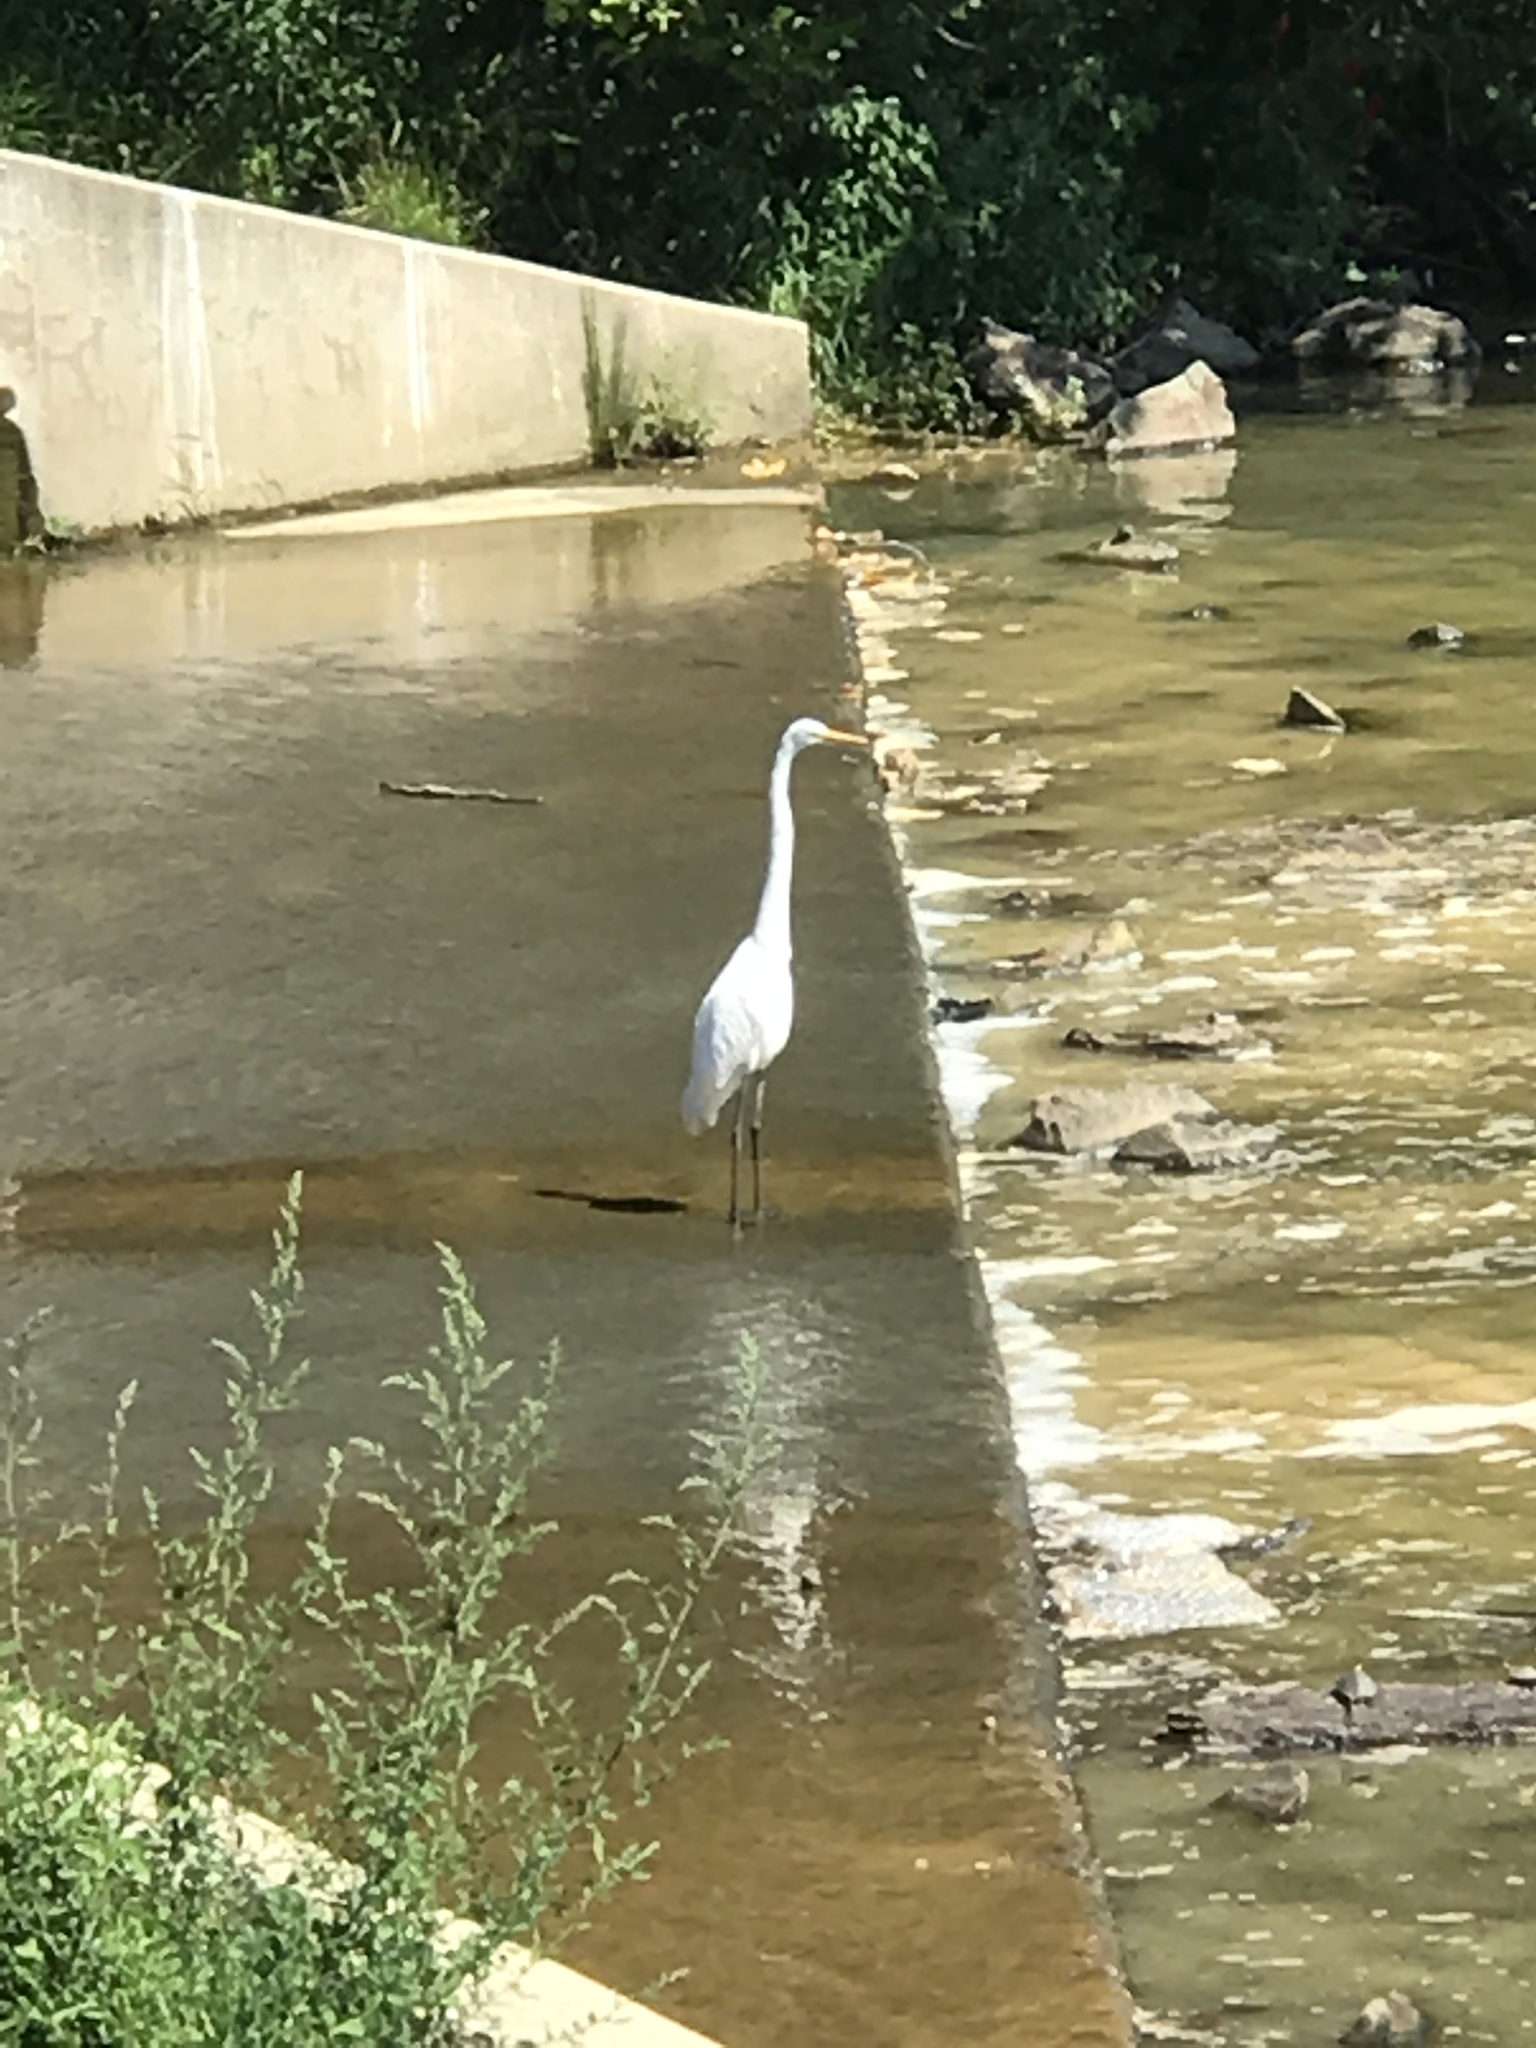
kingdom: Animalia
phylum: Chordata
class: Aves
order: Pelecaniformes
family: Ardeidae
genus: Ardea
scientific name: Ardea alba
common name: Great egret
